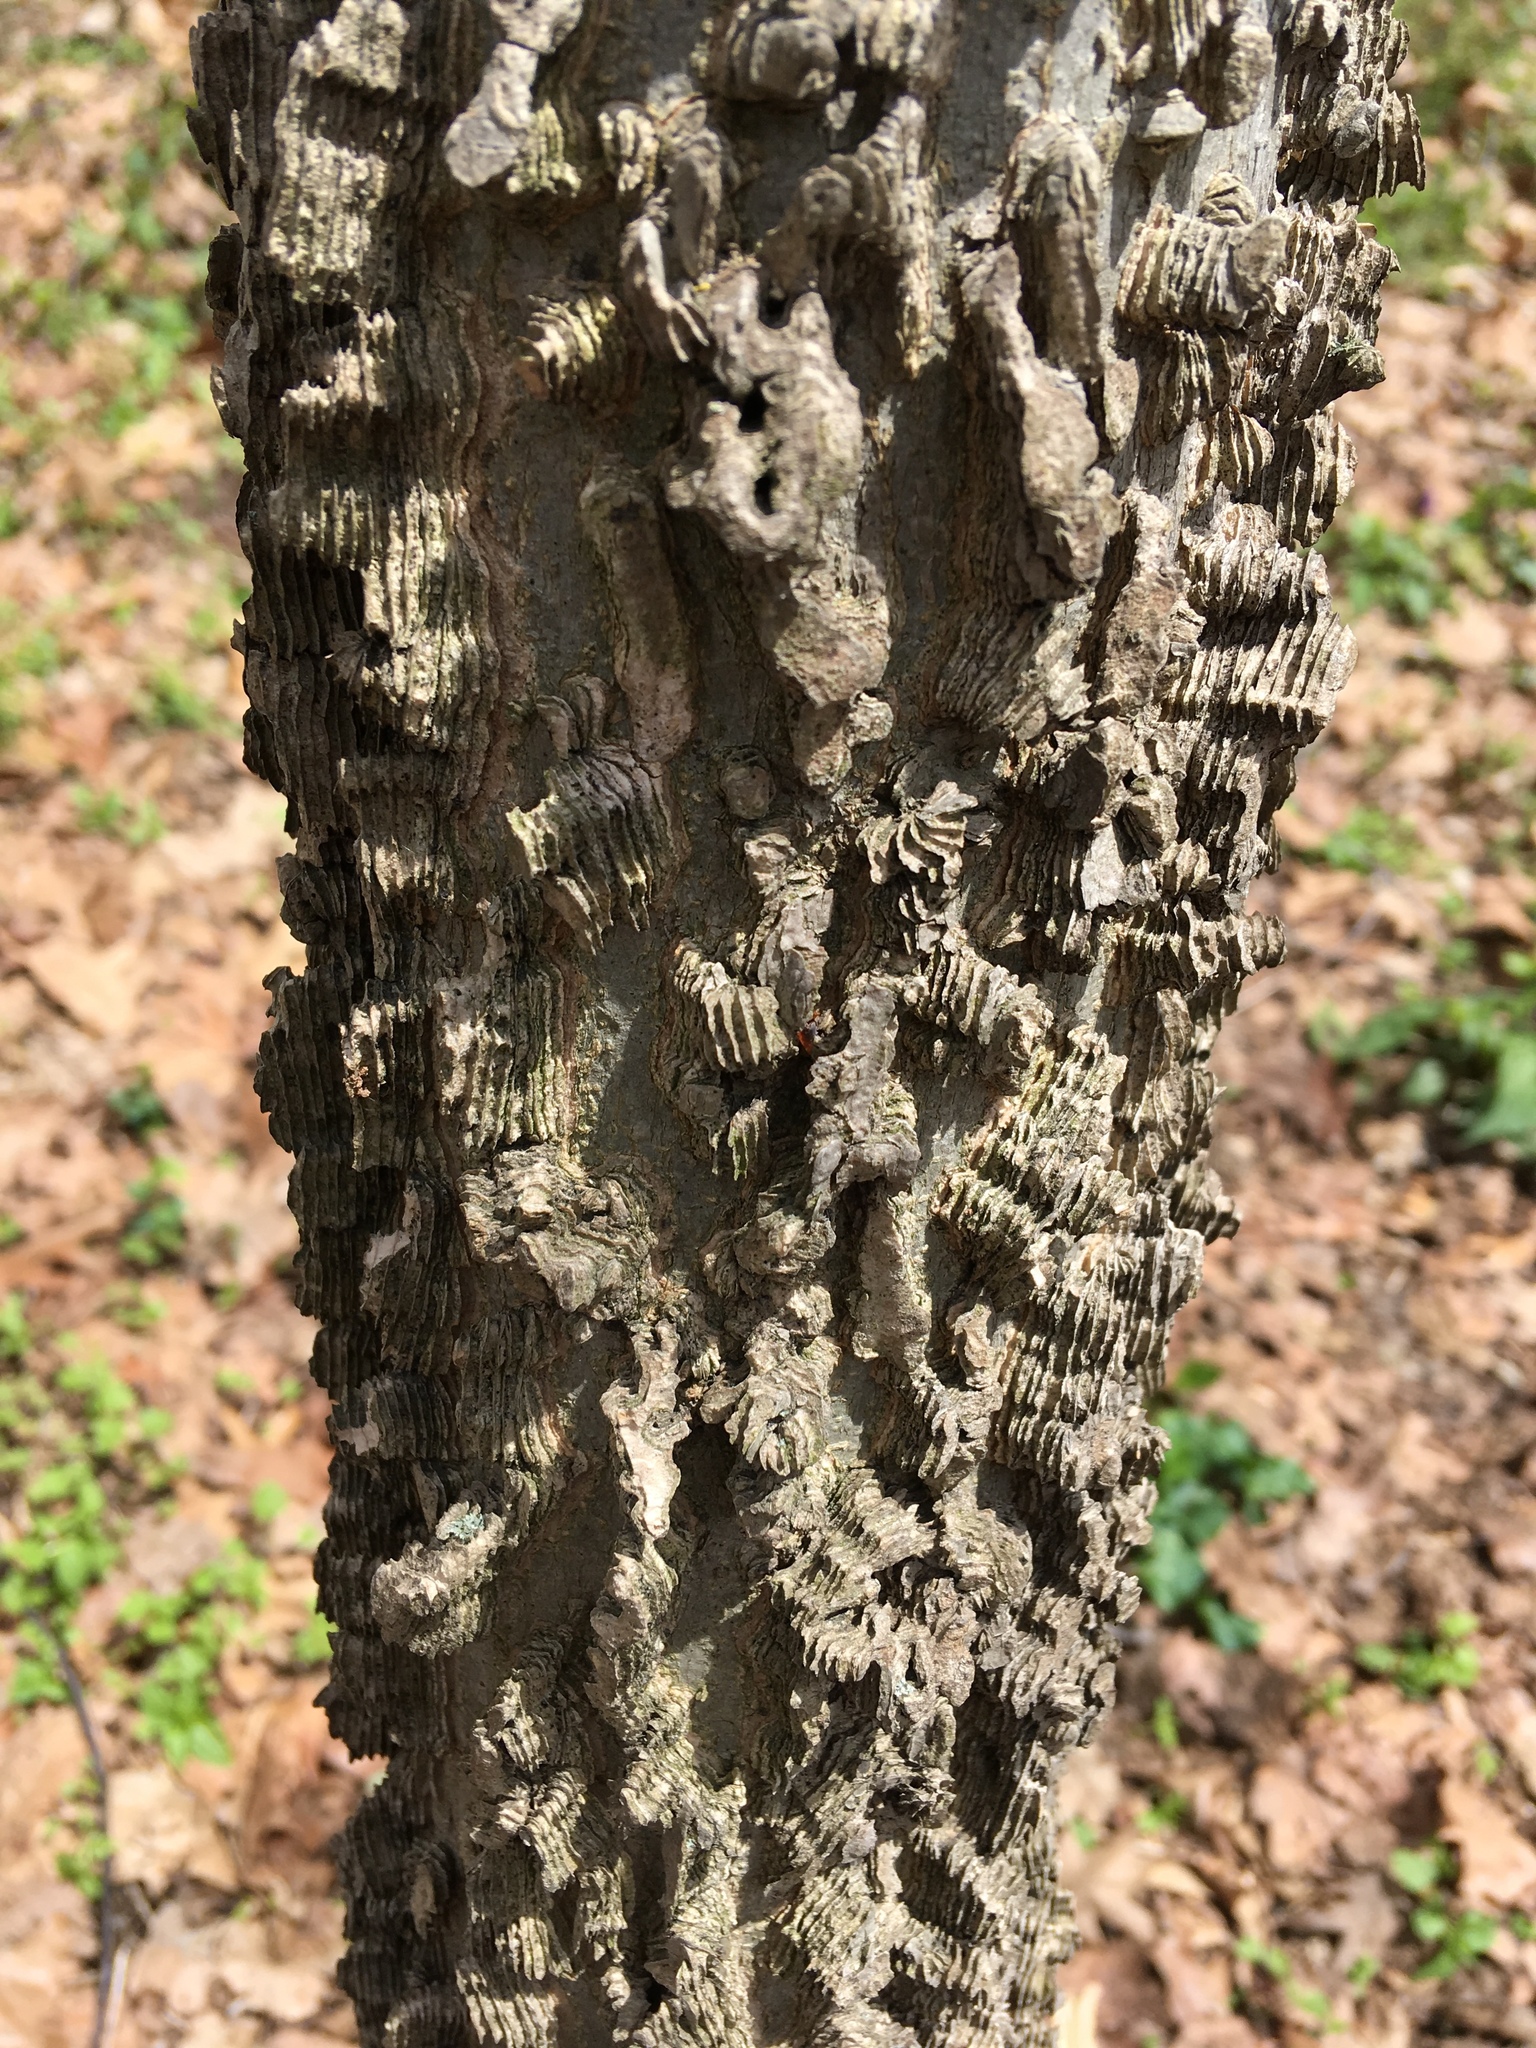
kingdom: Plantae
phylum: Tracheophyta
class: Magnoliopsida
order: Rosales
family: Cannabaceae
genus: Celtis
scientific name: Celtis occidentalis
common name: Common hackberry
